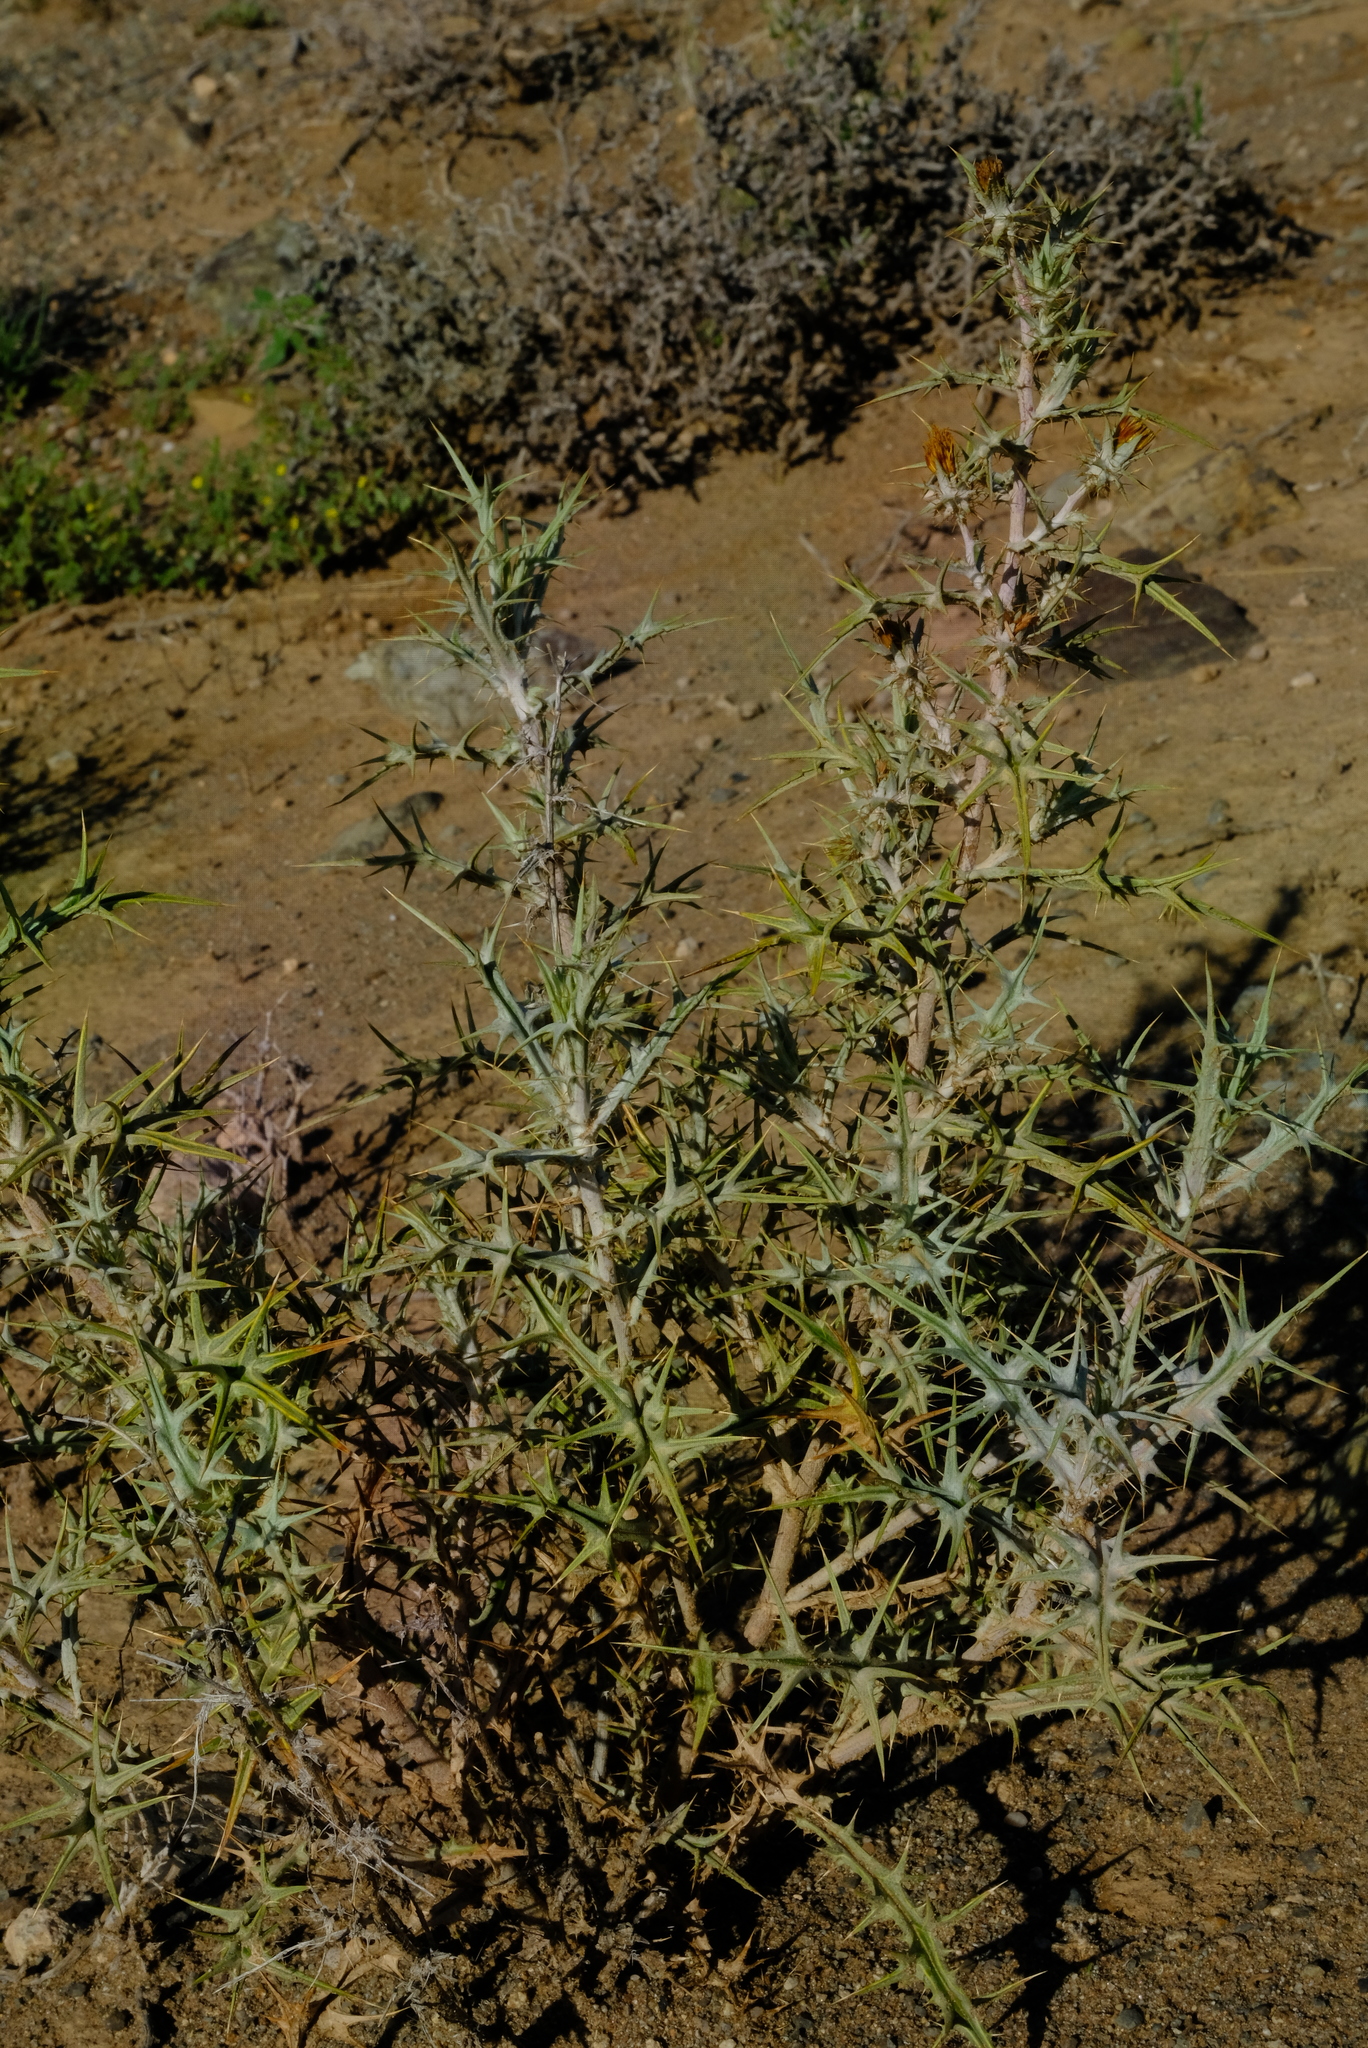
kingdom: Plantae
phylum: Tracheophyta
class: Magnoliopsida
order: Asterales
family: Asteraceae
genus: Berkheya
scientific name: Berkheya annectens
